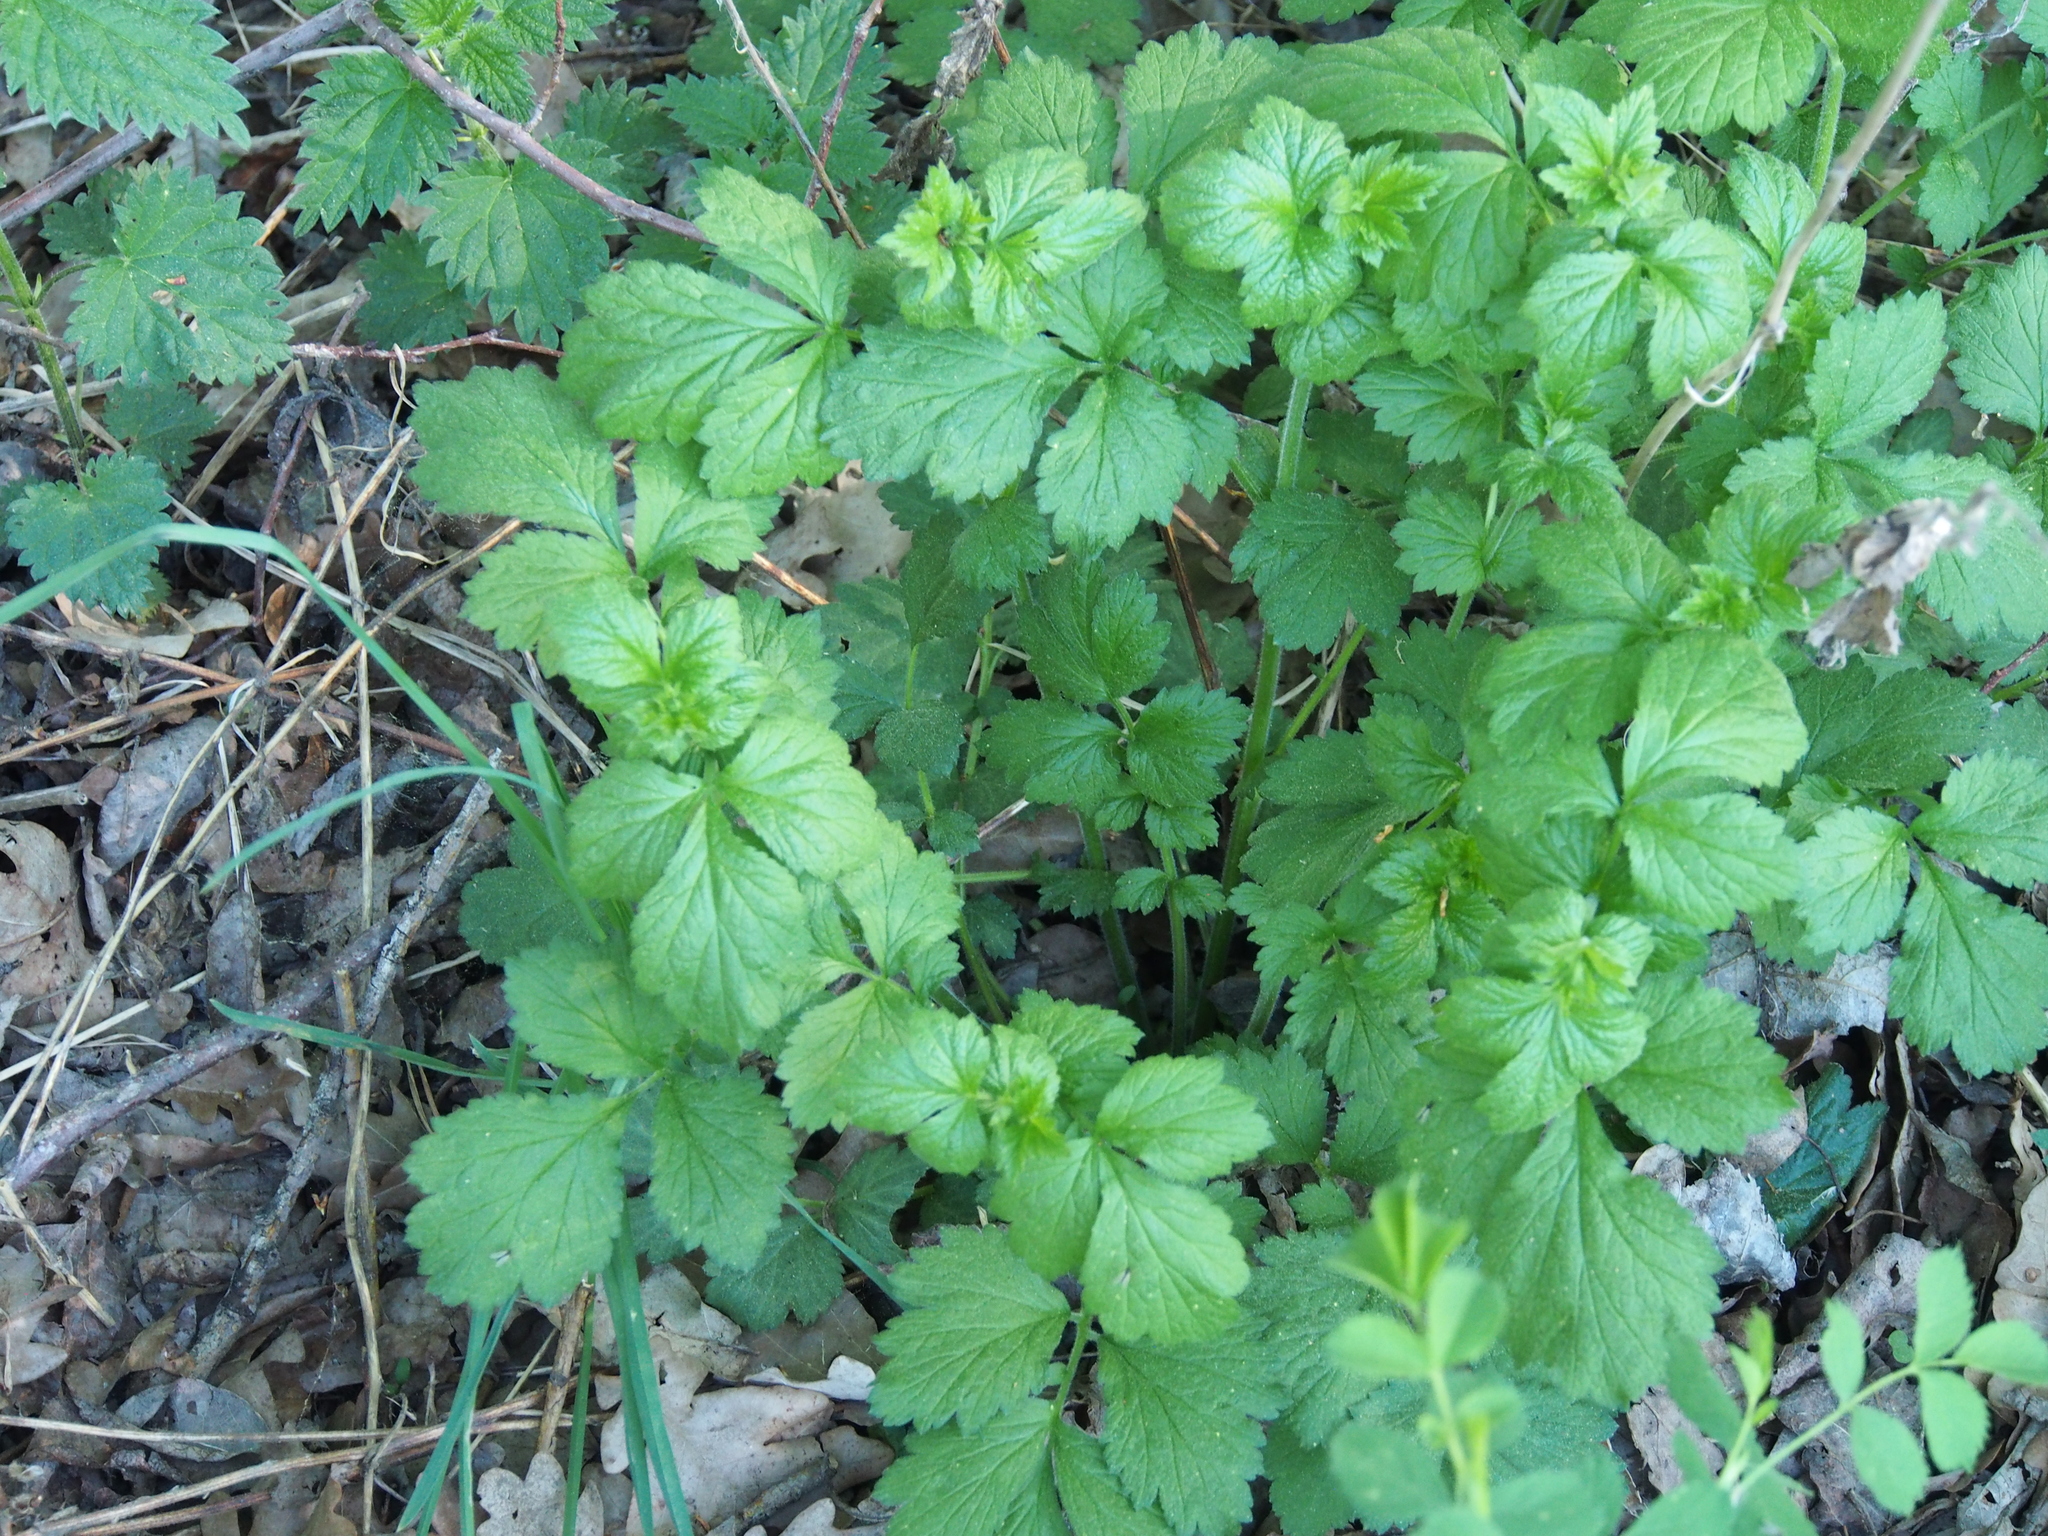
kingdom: Plantae
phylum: Tracheophyta
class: Magnoliopsida
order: Rosales
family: Rosaceae
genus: Geum
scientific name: Geum urbanum
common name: Wood avens
